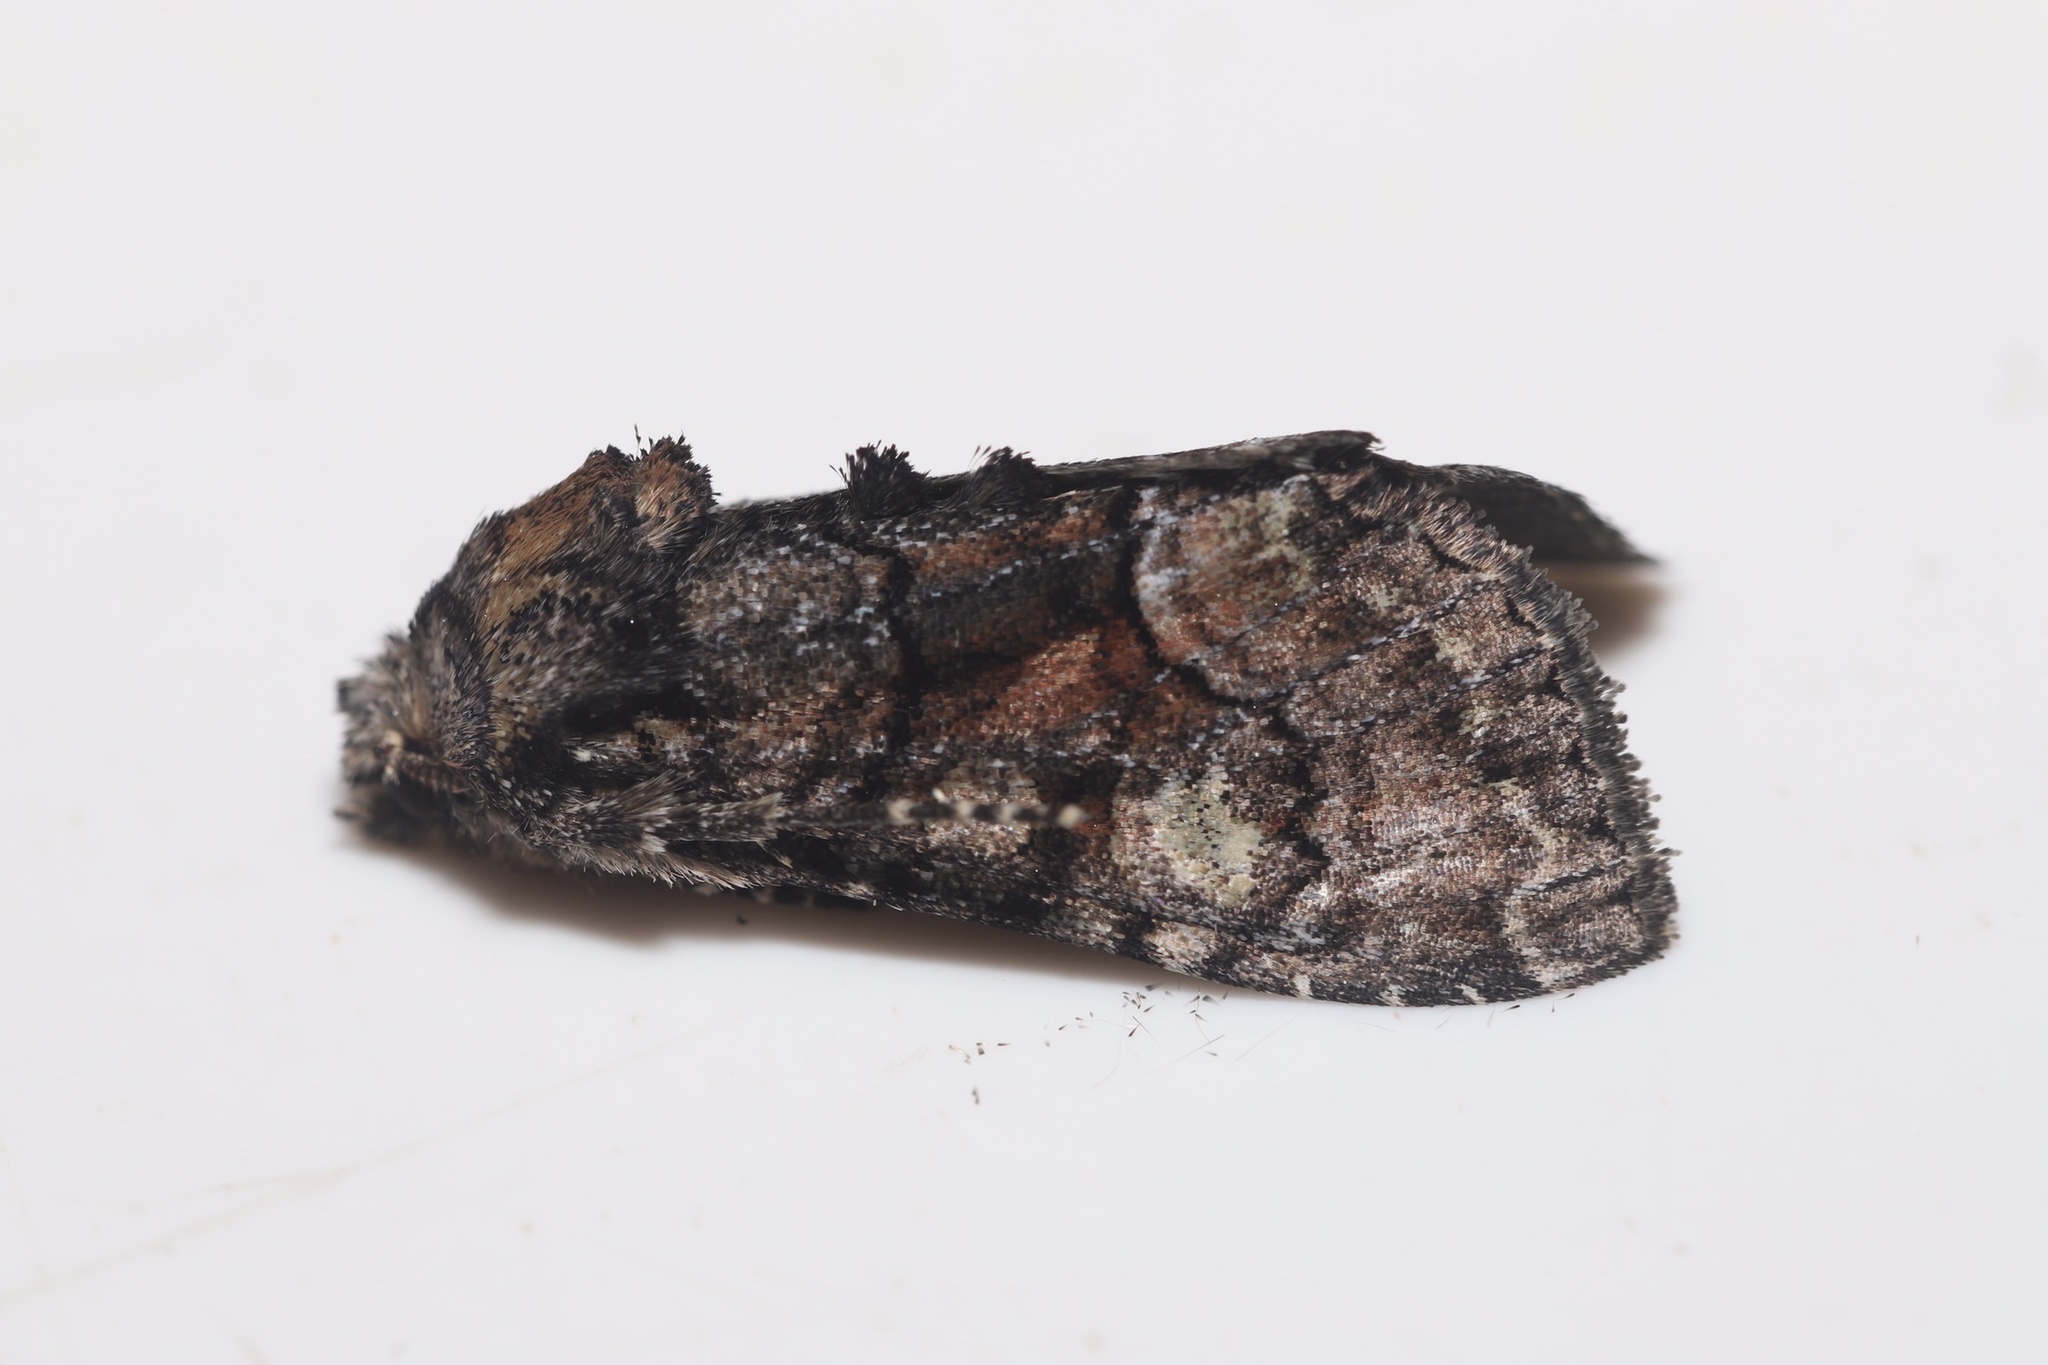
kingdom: Animalia
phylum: Arthropoda
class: Insecta
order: Lepidoptera
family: Noctuidae
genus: Fishia
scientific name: Fishia illocata
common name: Wandering brocade moth
